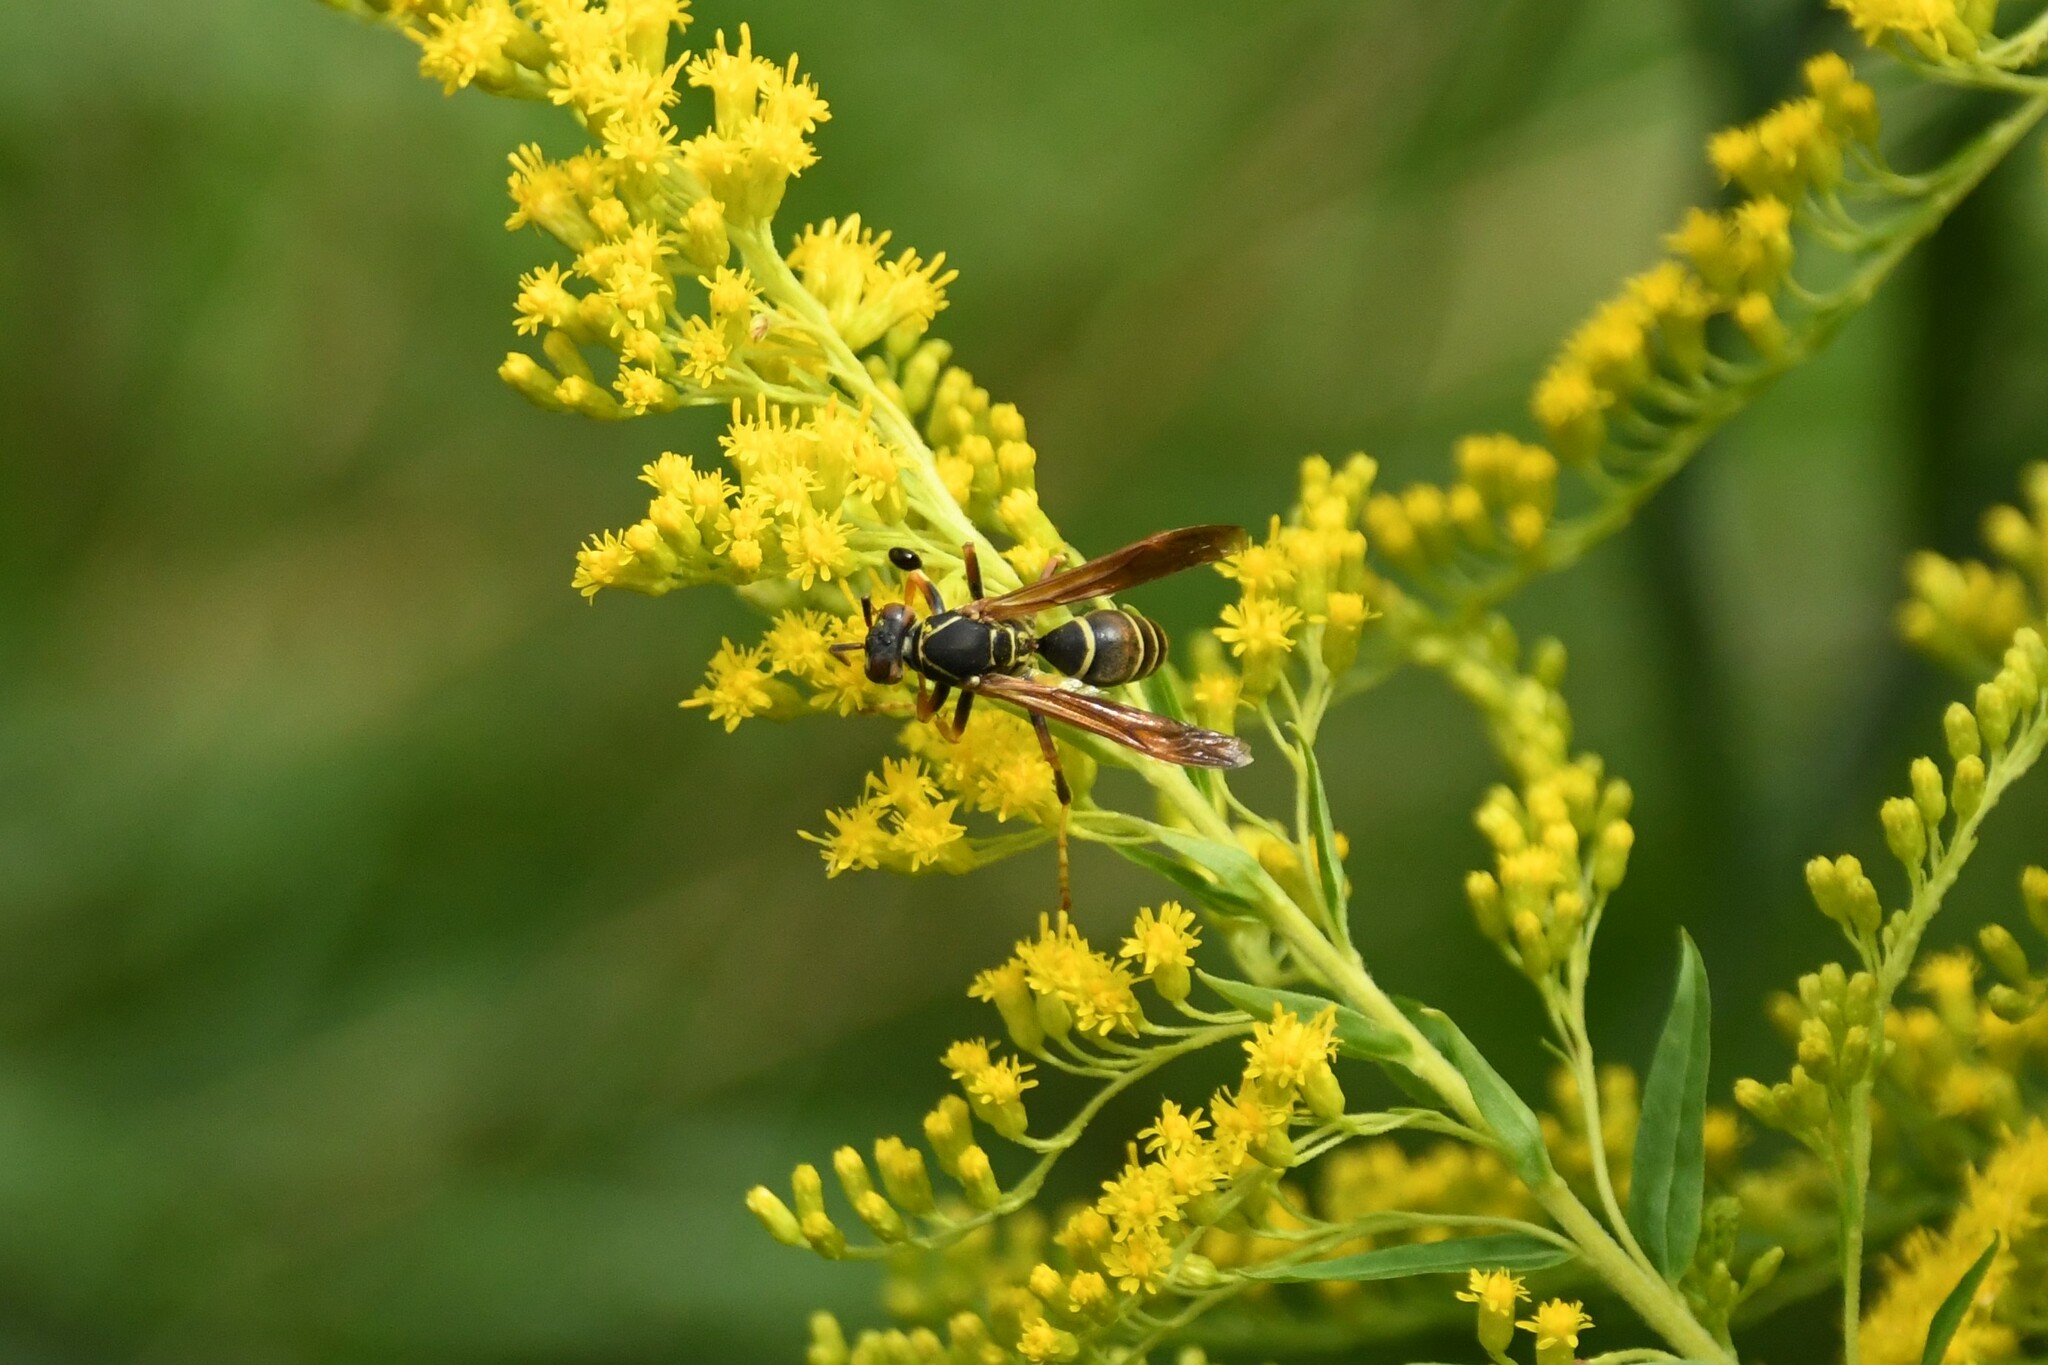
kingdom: Animalia
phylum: Arthropoda
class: Insecta
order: Hymenoptera
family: Eumenidae
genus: Polistes
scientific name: Polistes fuscatus
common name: Dark paper wasp
